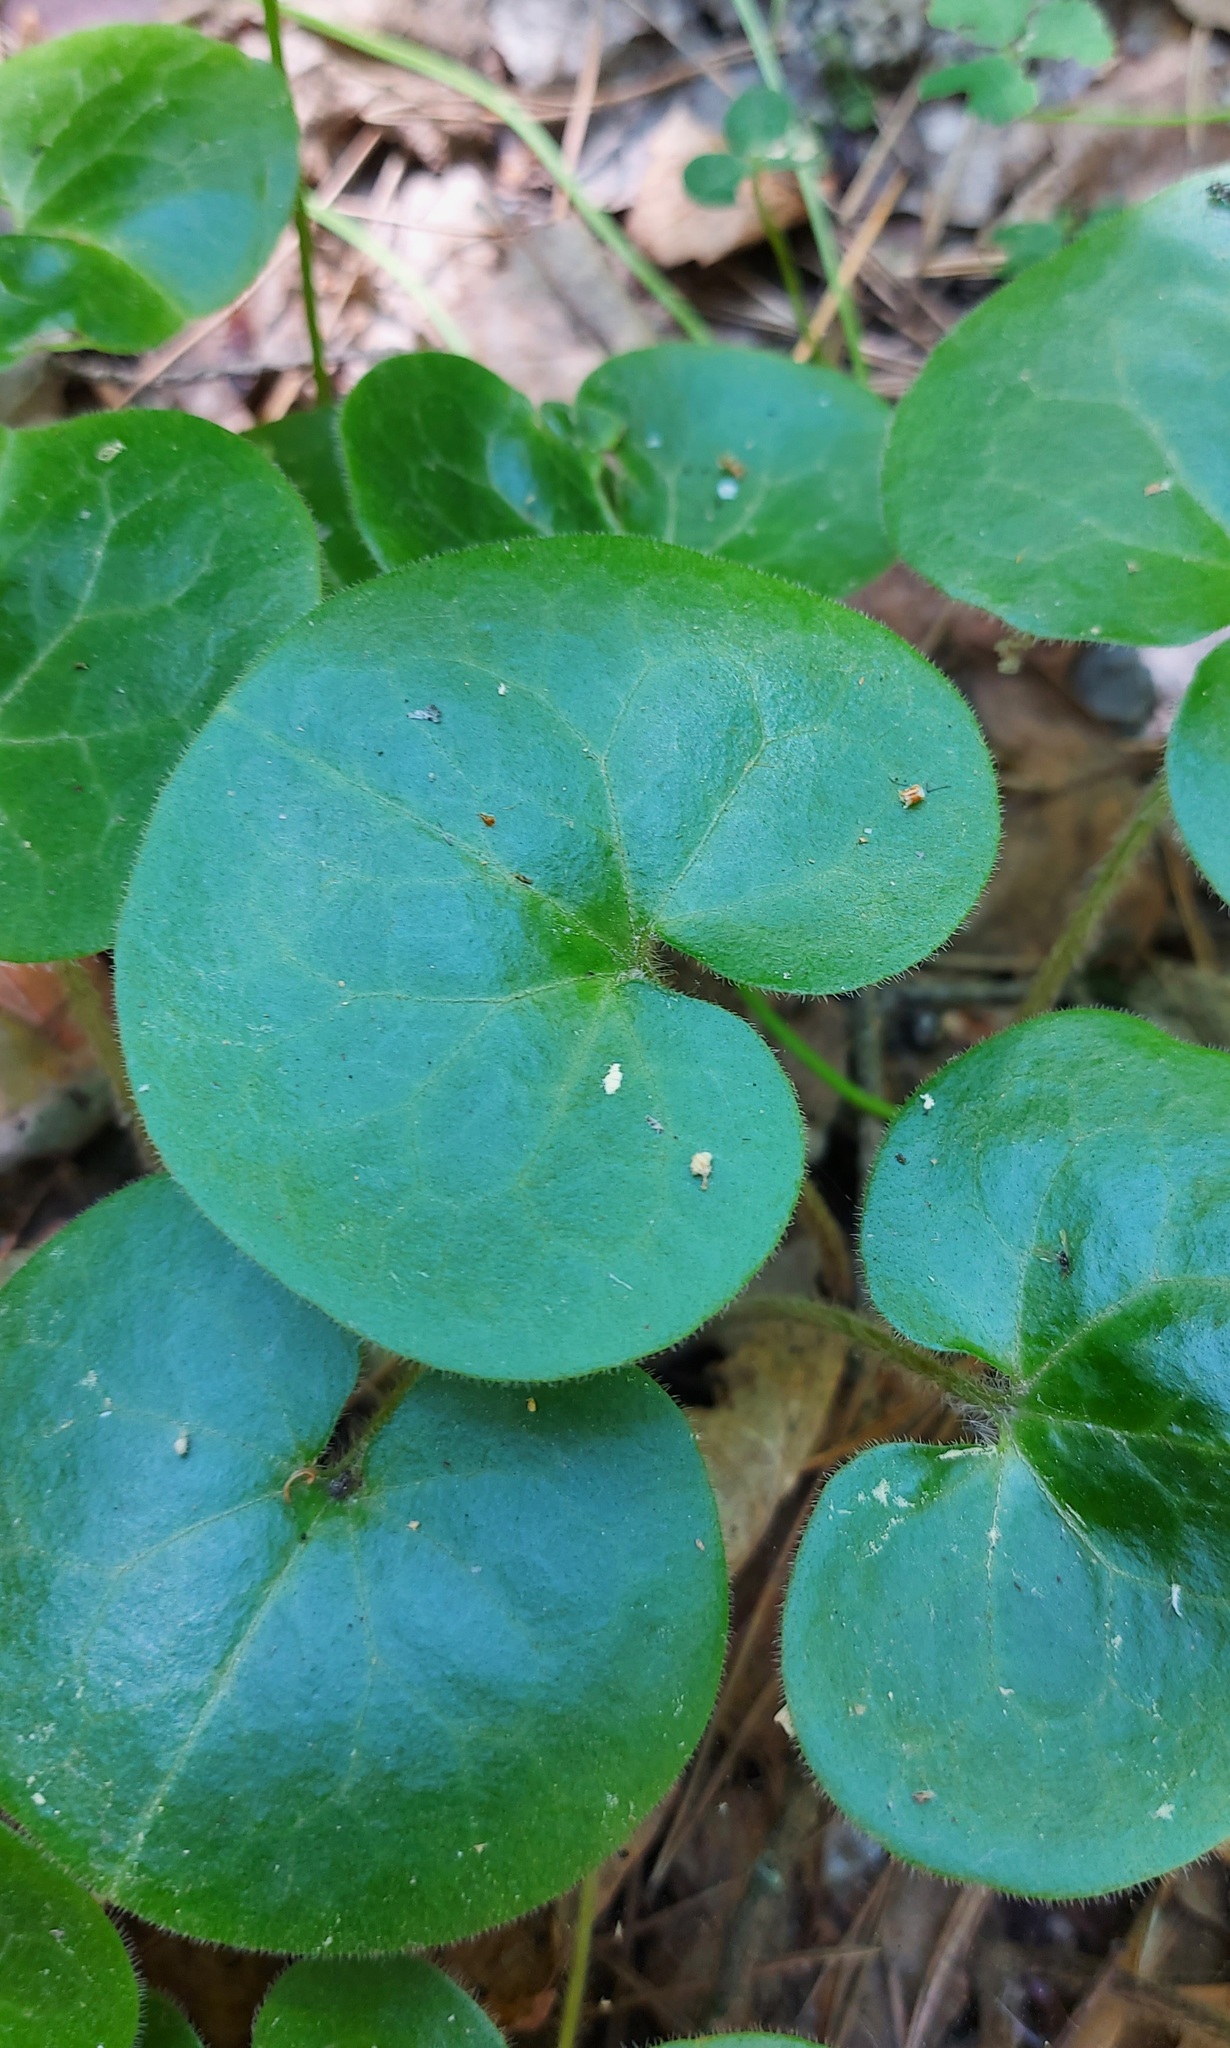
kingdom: Plantae
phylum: Tracheophyta
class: Magnoliopsida
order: Piperales
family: Aristolochiaceae
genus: Asarum
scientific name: Asarum europaeum
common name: Asarabacca
